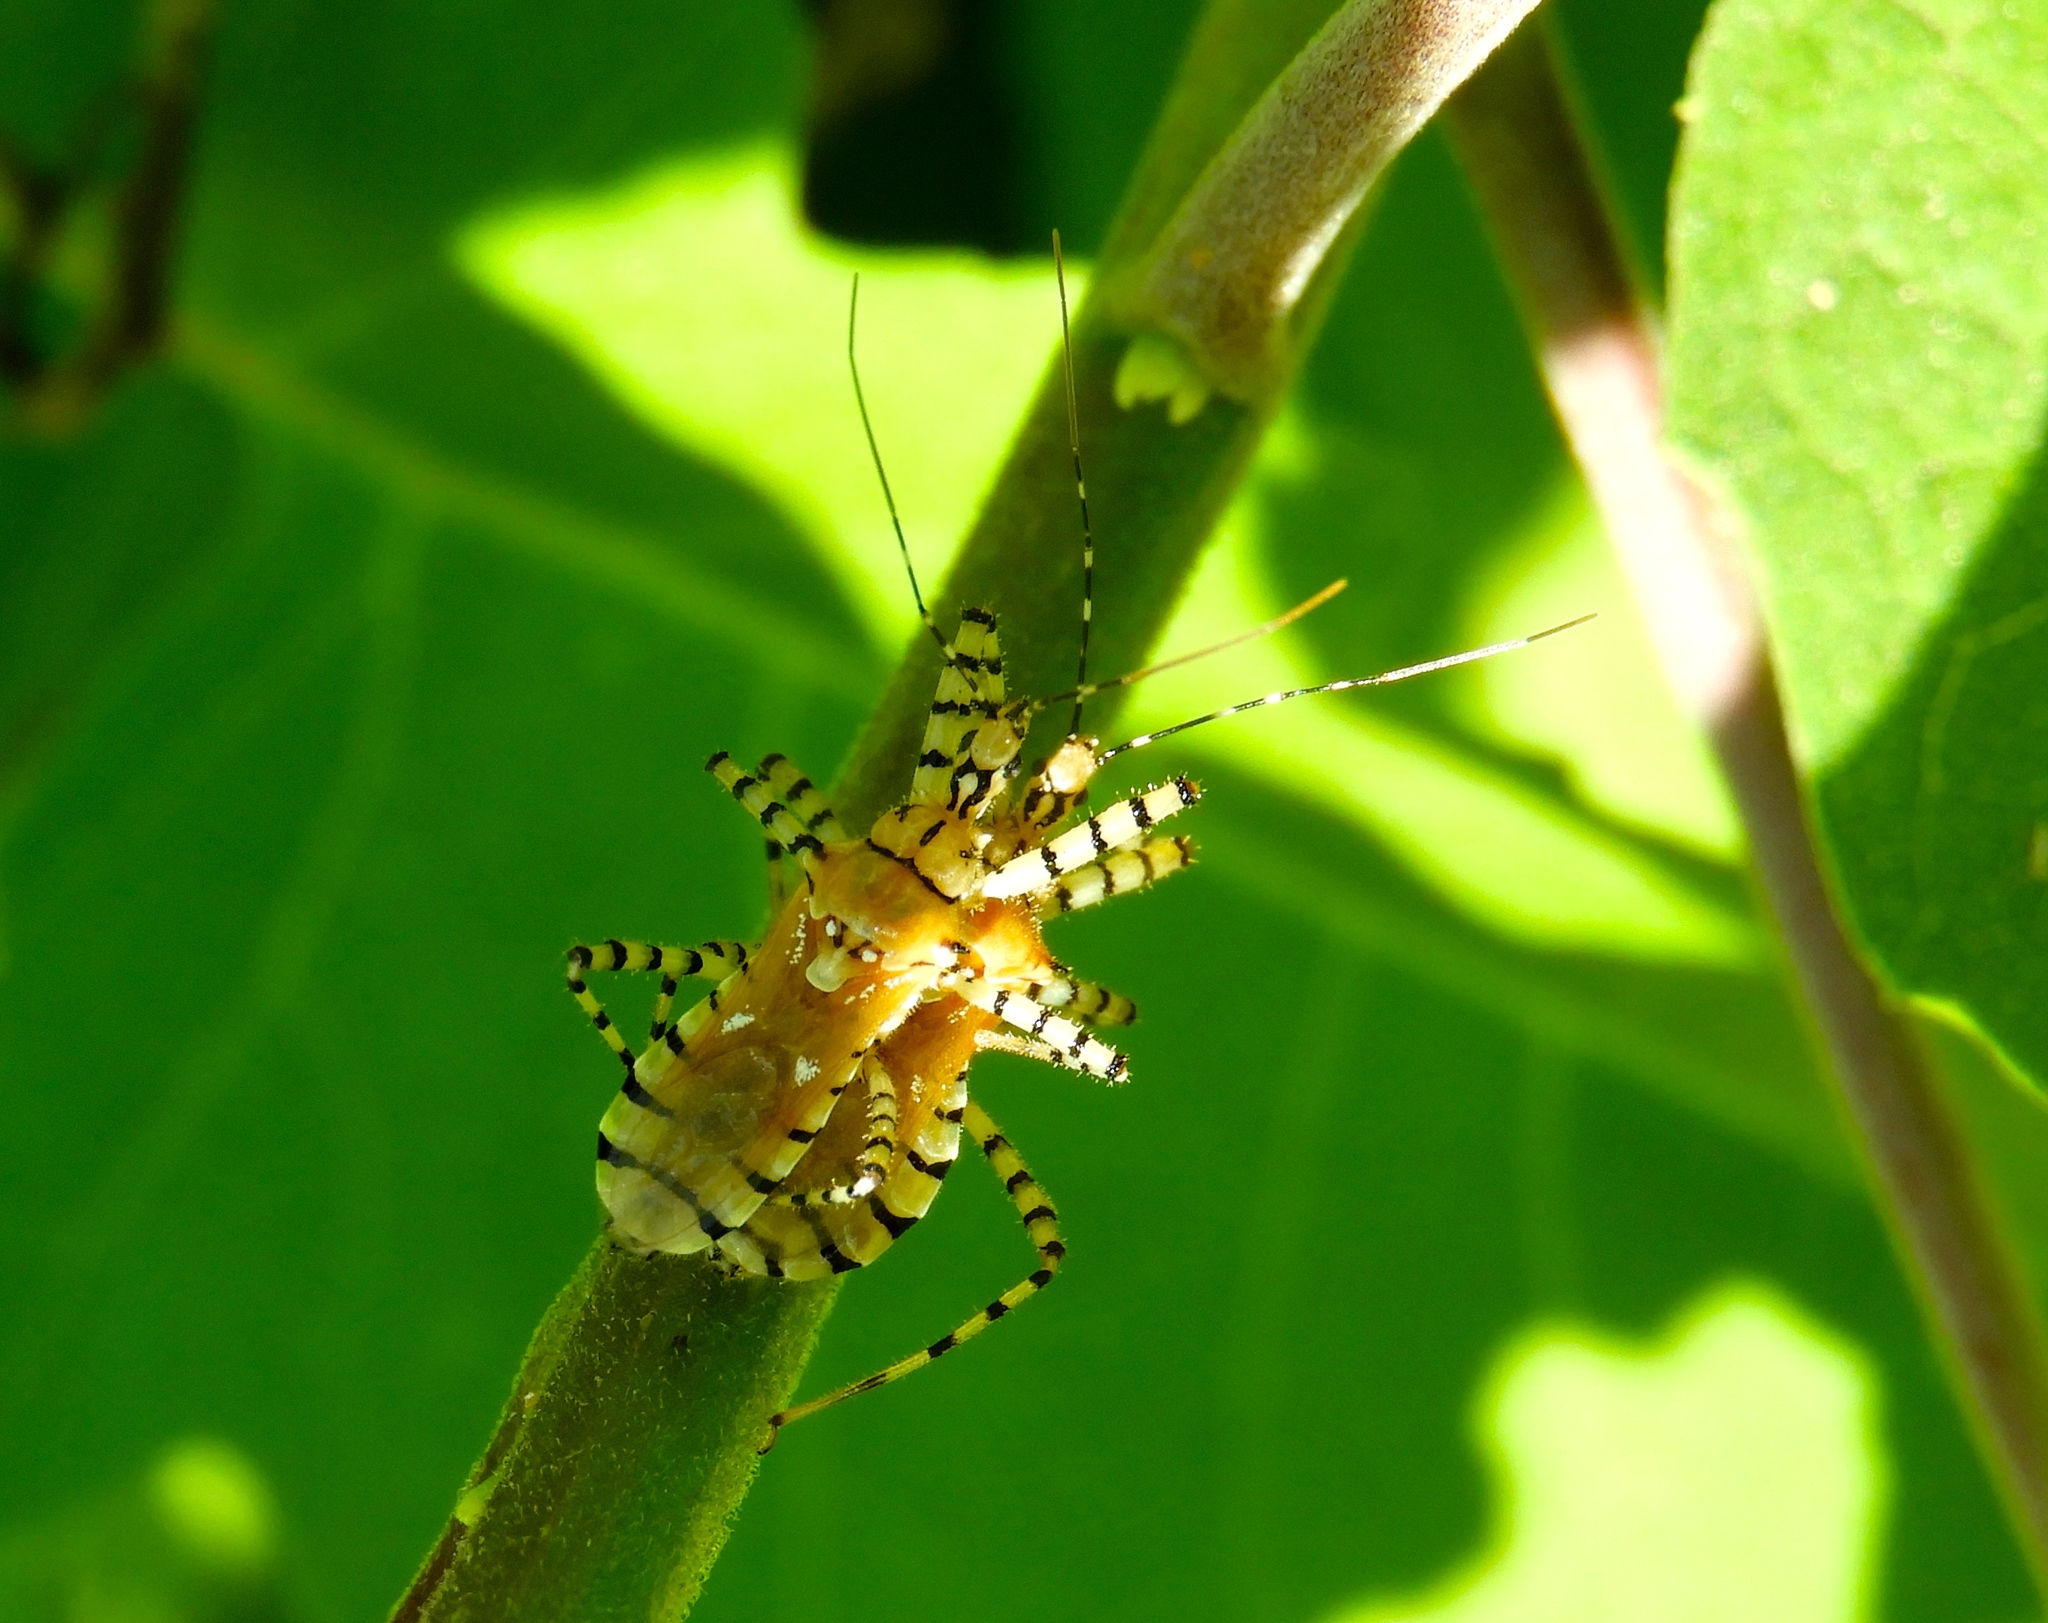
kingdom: Animalia
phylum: Arthropoda
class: Insecta
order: Hemiptera
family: Reduviidae
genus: Pselliopus
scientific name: Pselliopus
